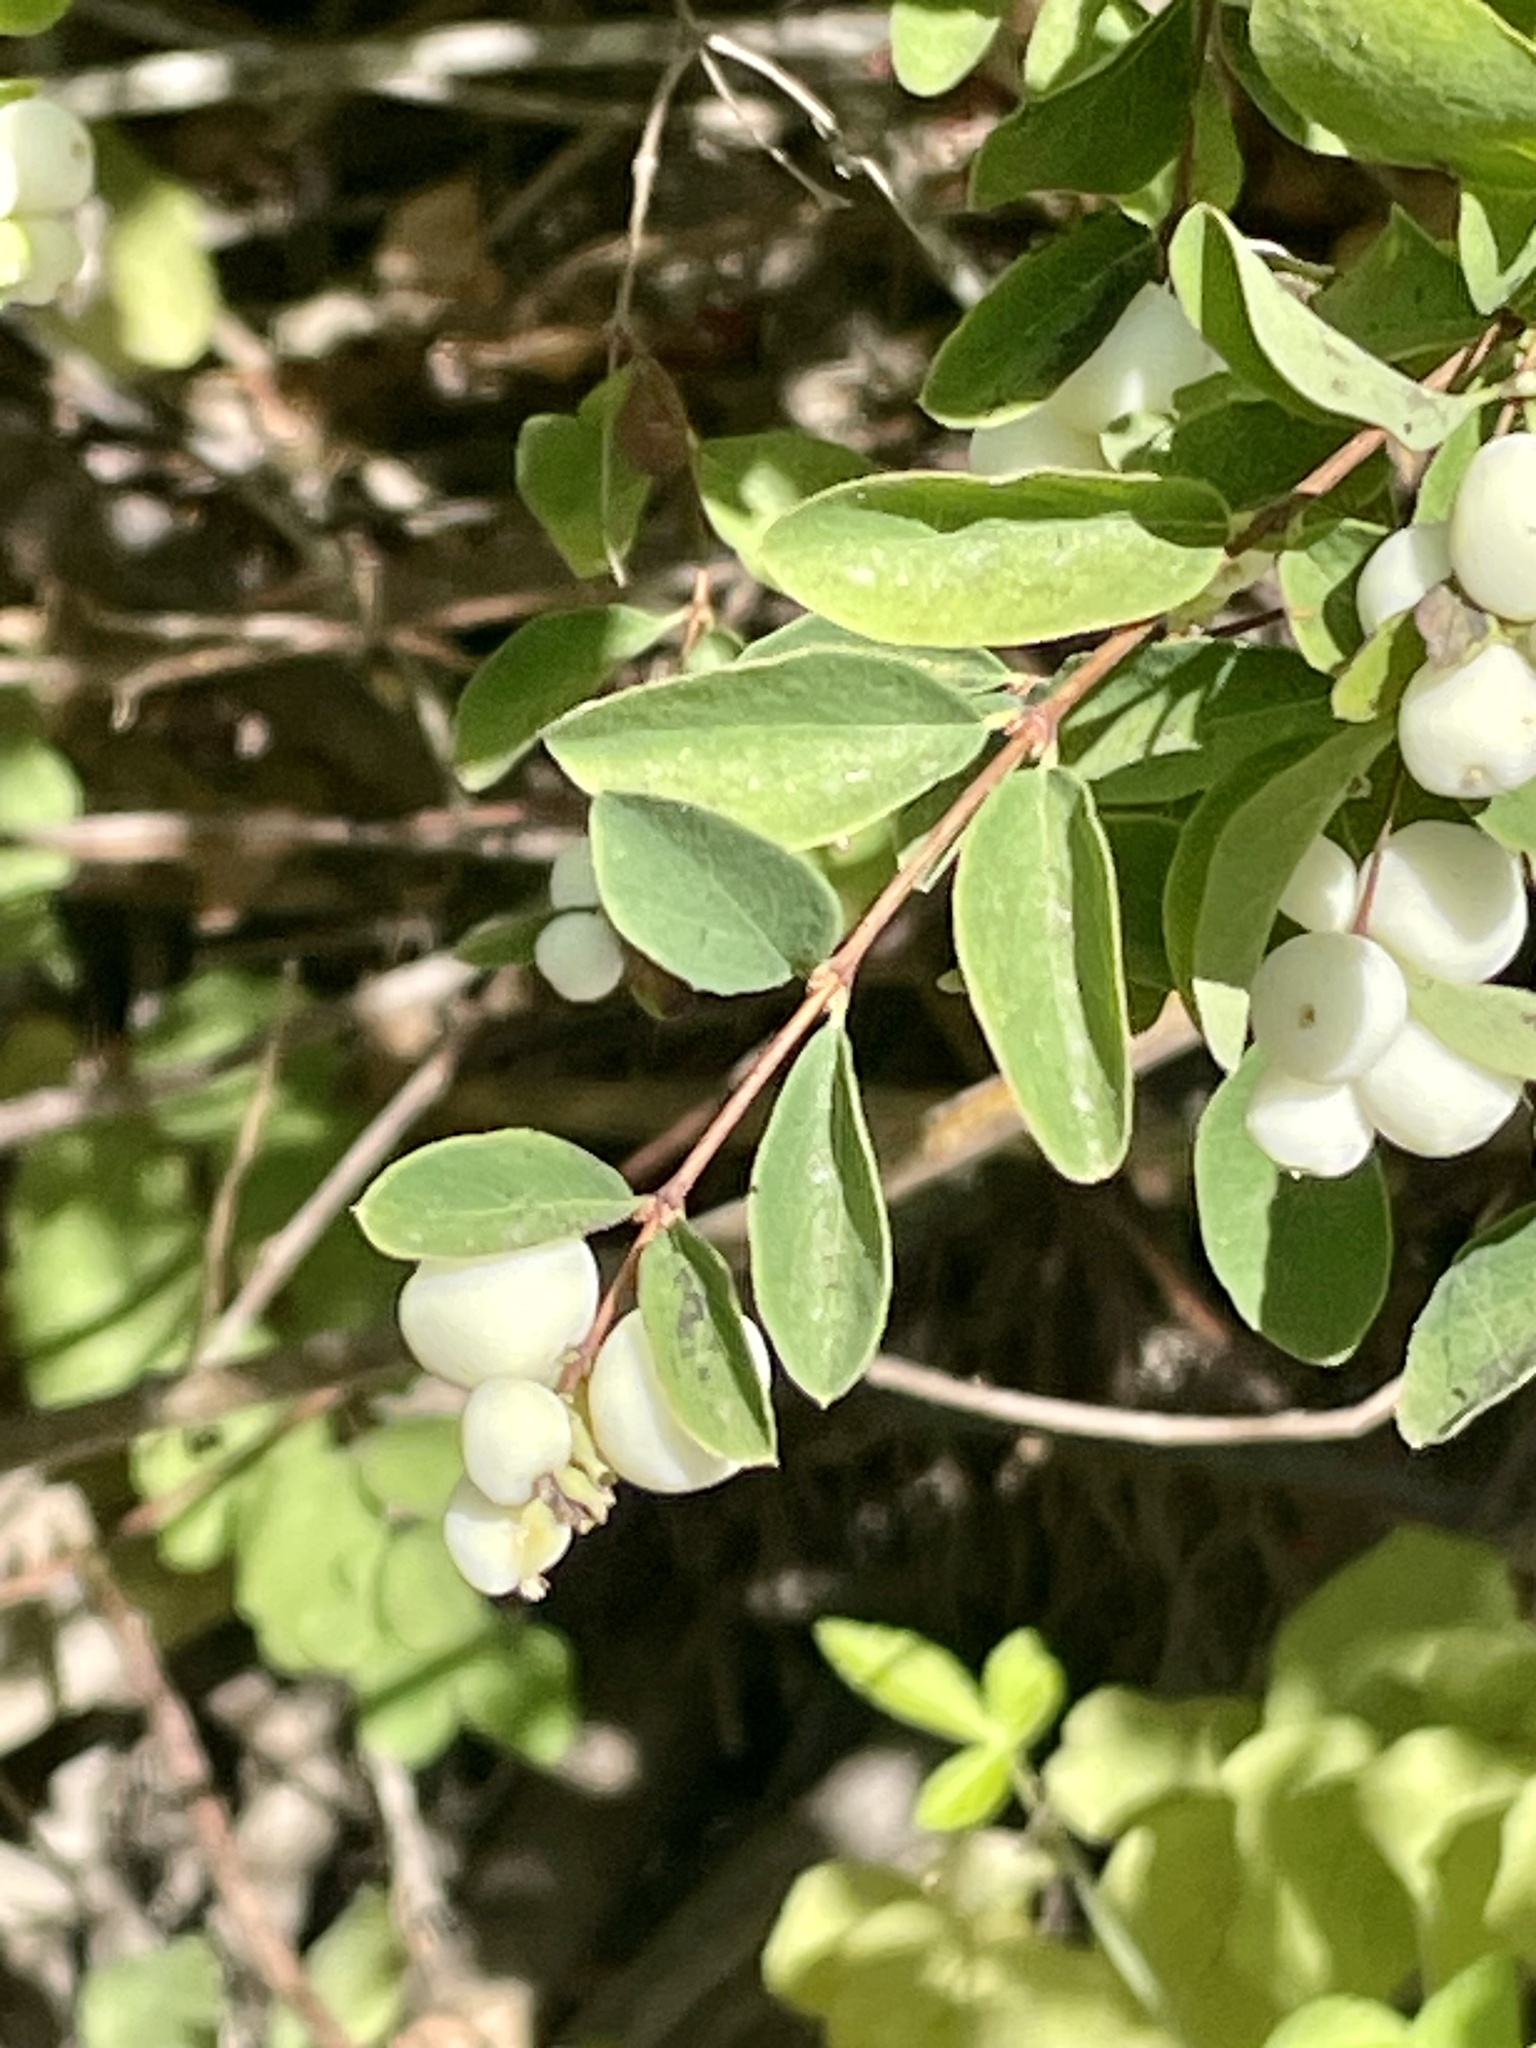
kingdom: Plantae
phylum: Tracheophyta
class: Magnoliopsida
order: Dipsacales
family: Caprifoliaceae
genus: Symphoricarpos
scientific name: Symphoricarpos albus
